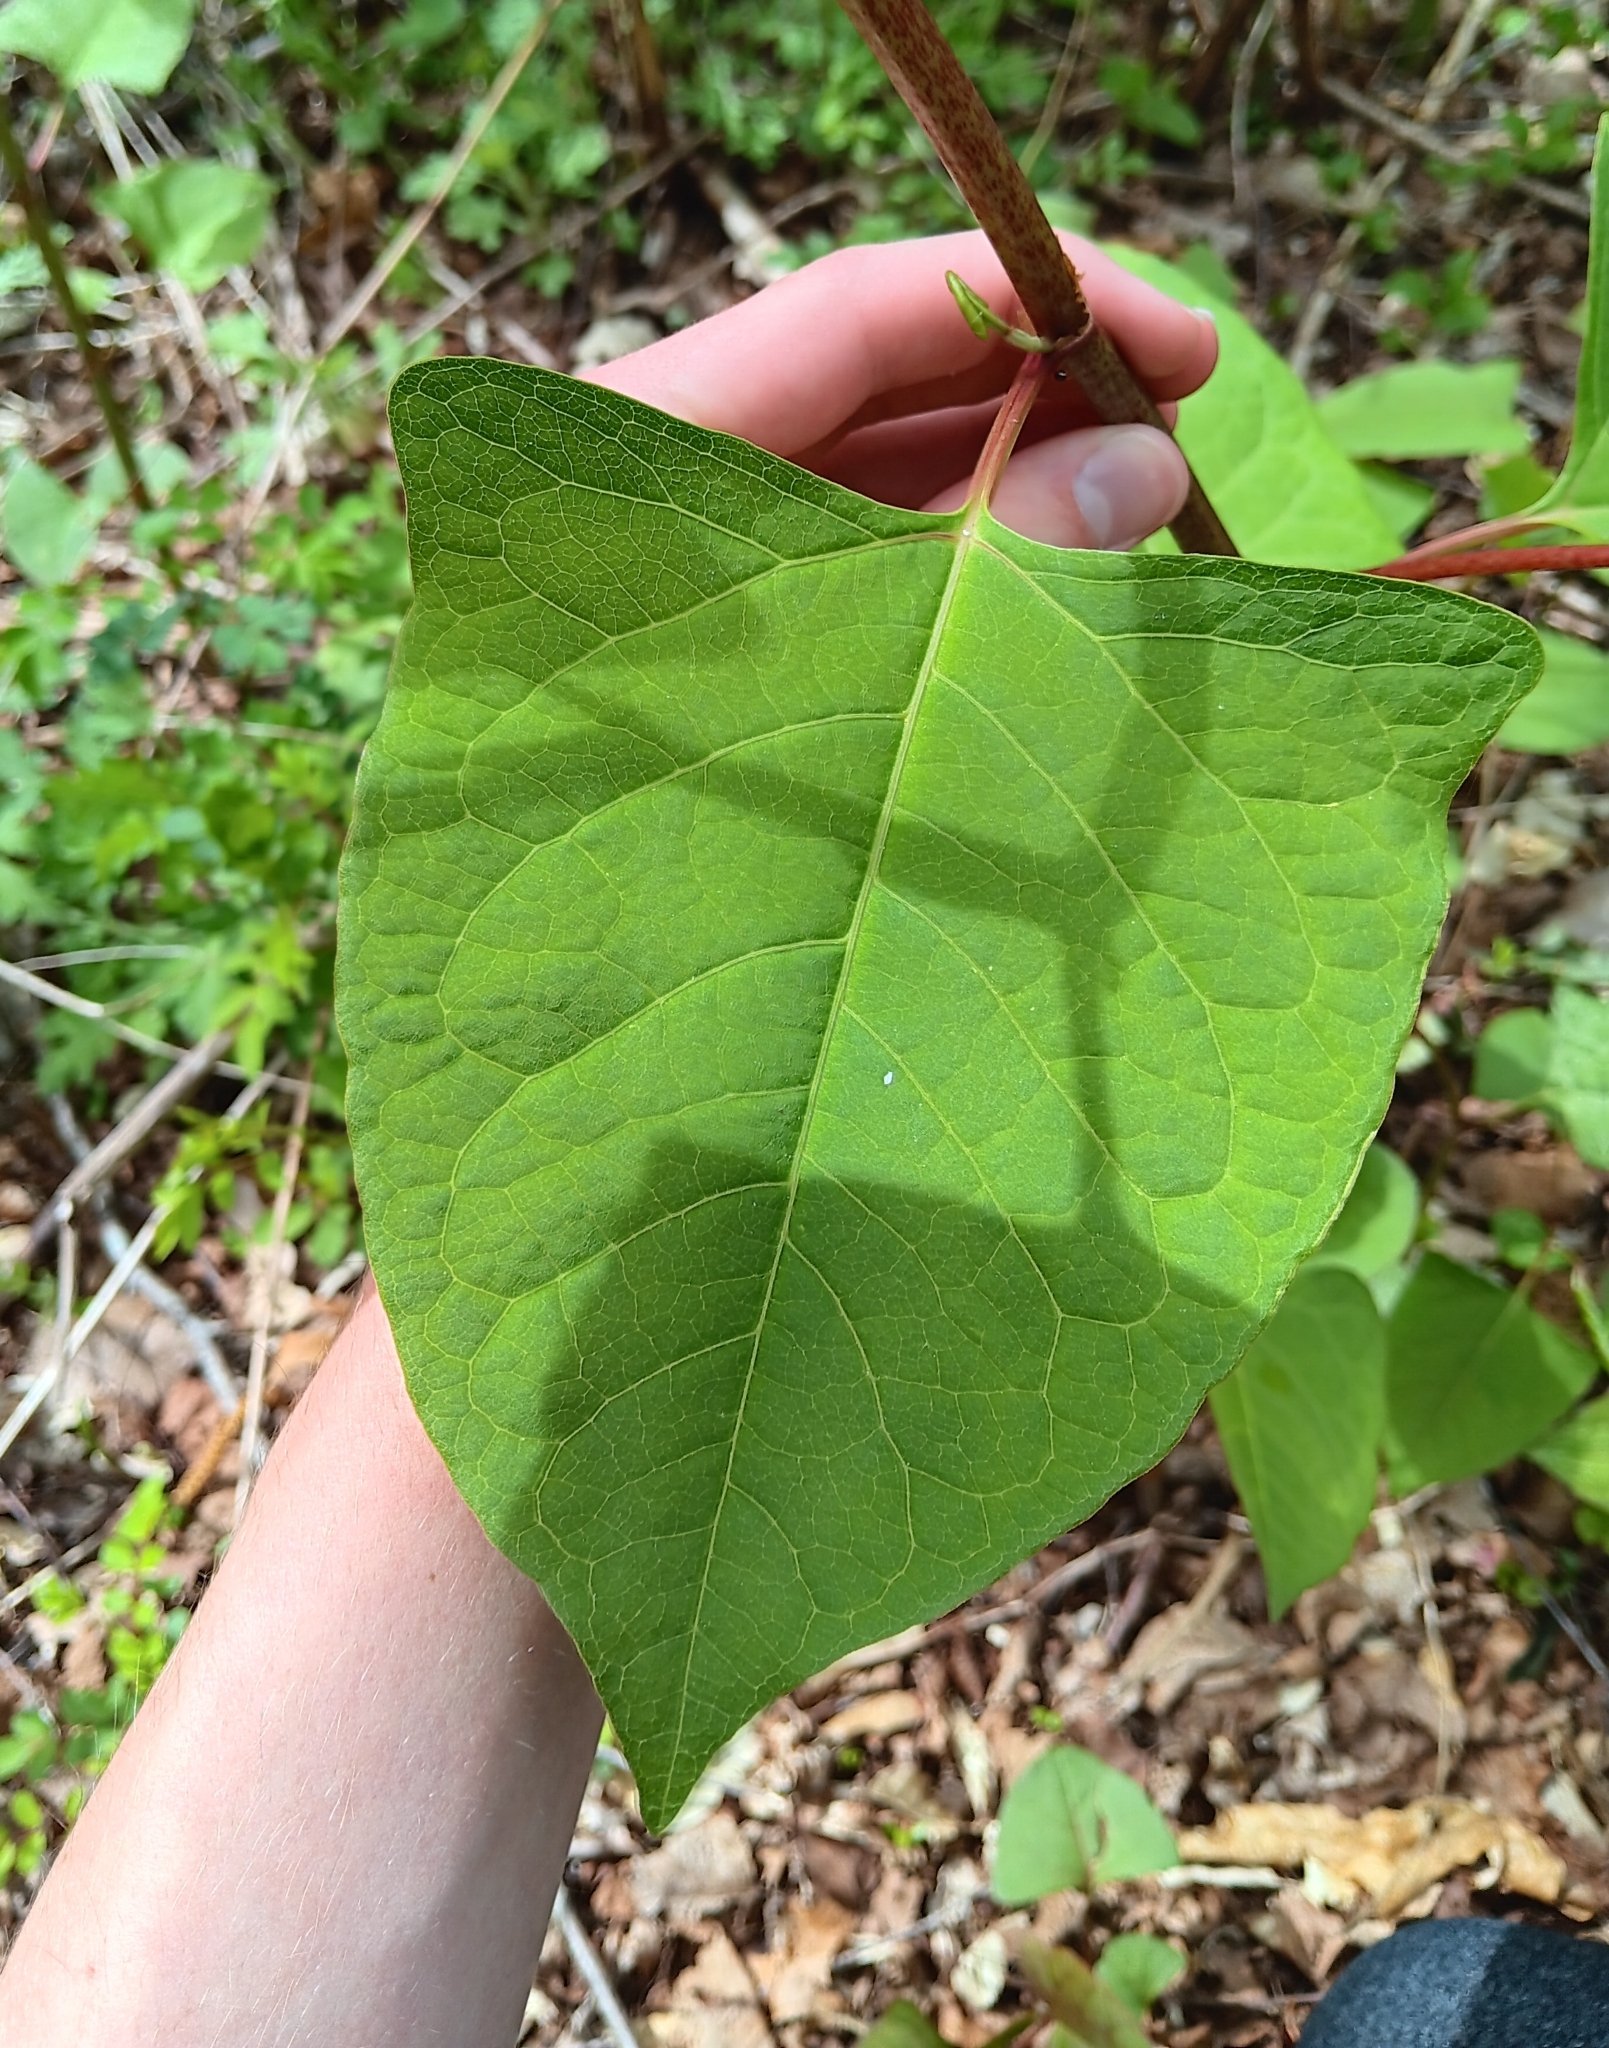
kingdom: Plantae
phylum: Tracheophyta
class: Magnoliopsida
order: Caryophyllales
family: Polygonaceae
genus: Reynoutria
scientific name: Reynoutria japonica
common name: Japanese knotweed
